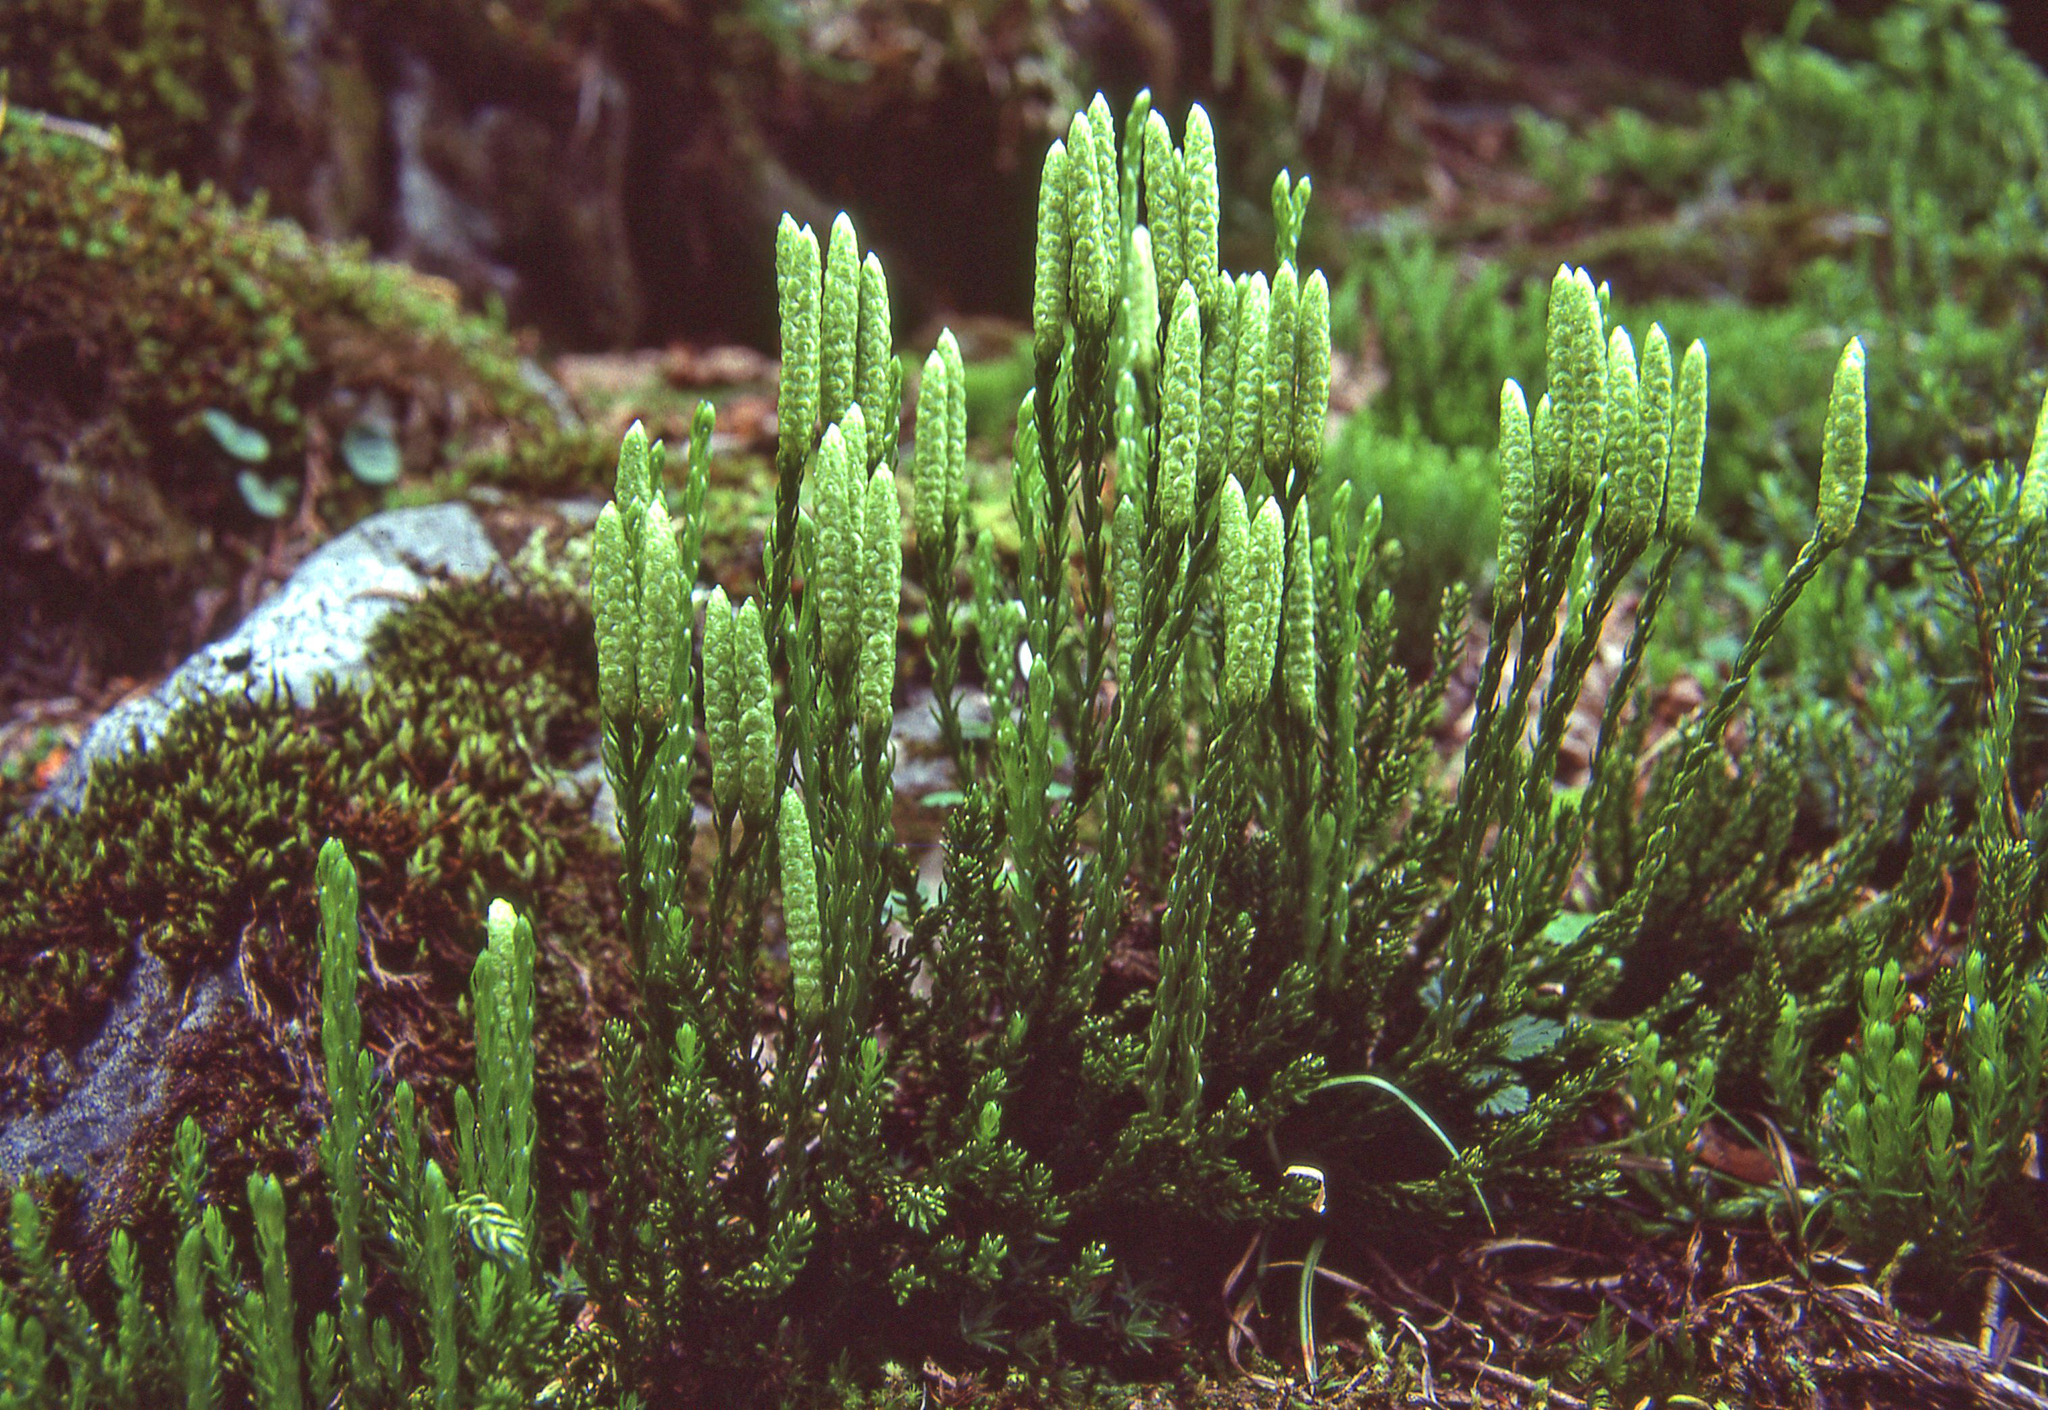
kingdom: Plantae
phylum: Tracheophyta
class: Lycopodiopsida
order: Lycopodiales
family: Lycopodiaceae
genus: Diphasiastrum
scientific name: Diphasiastrum sitchense
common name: Alaska clubmoss
